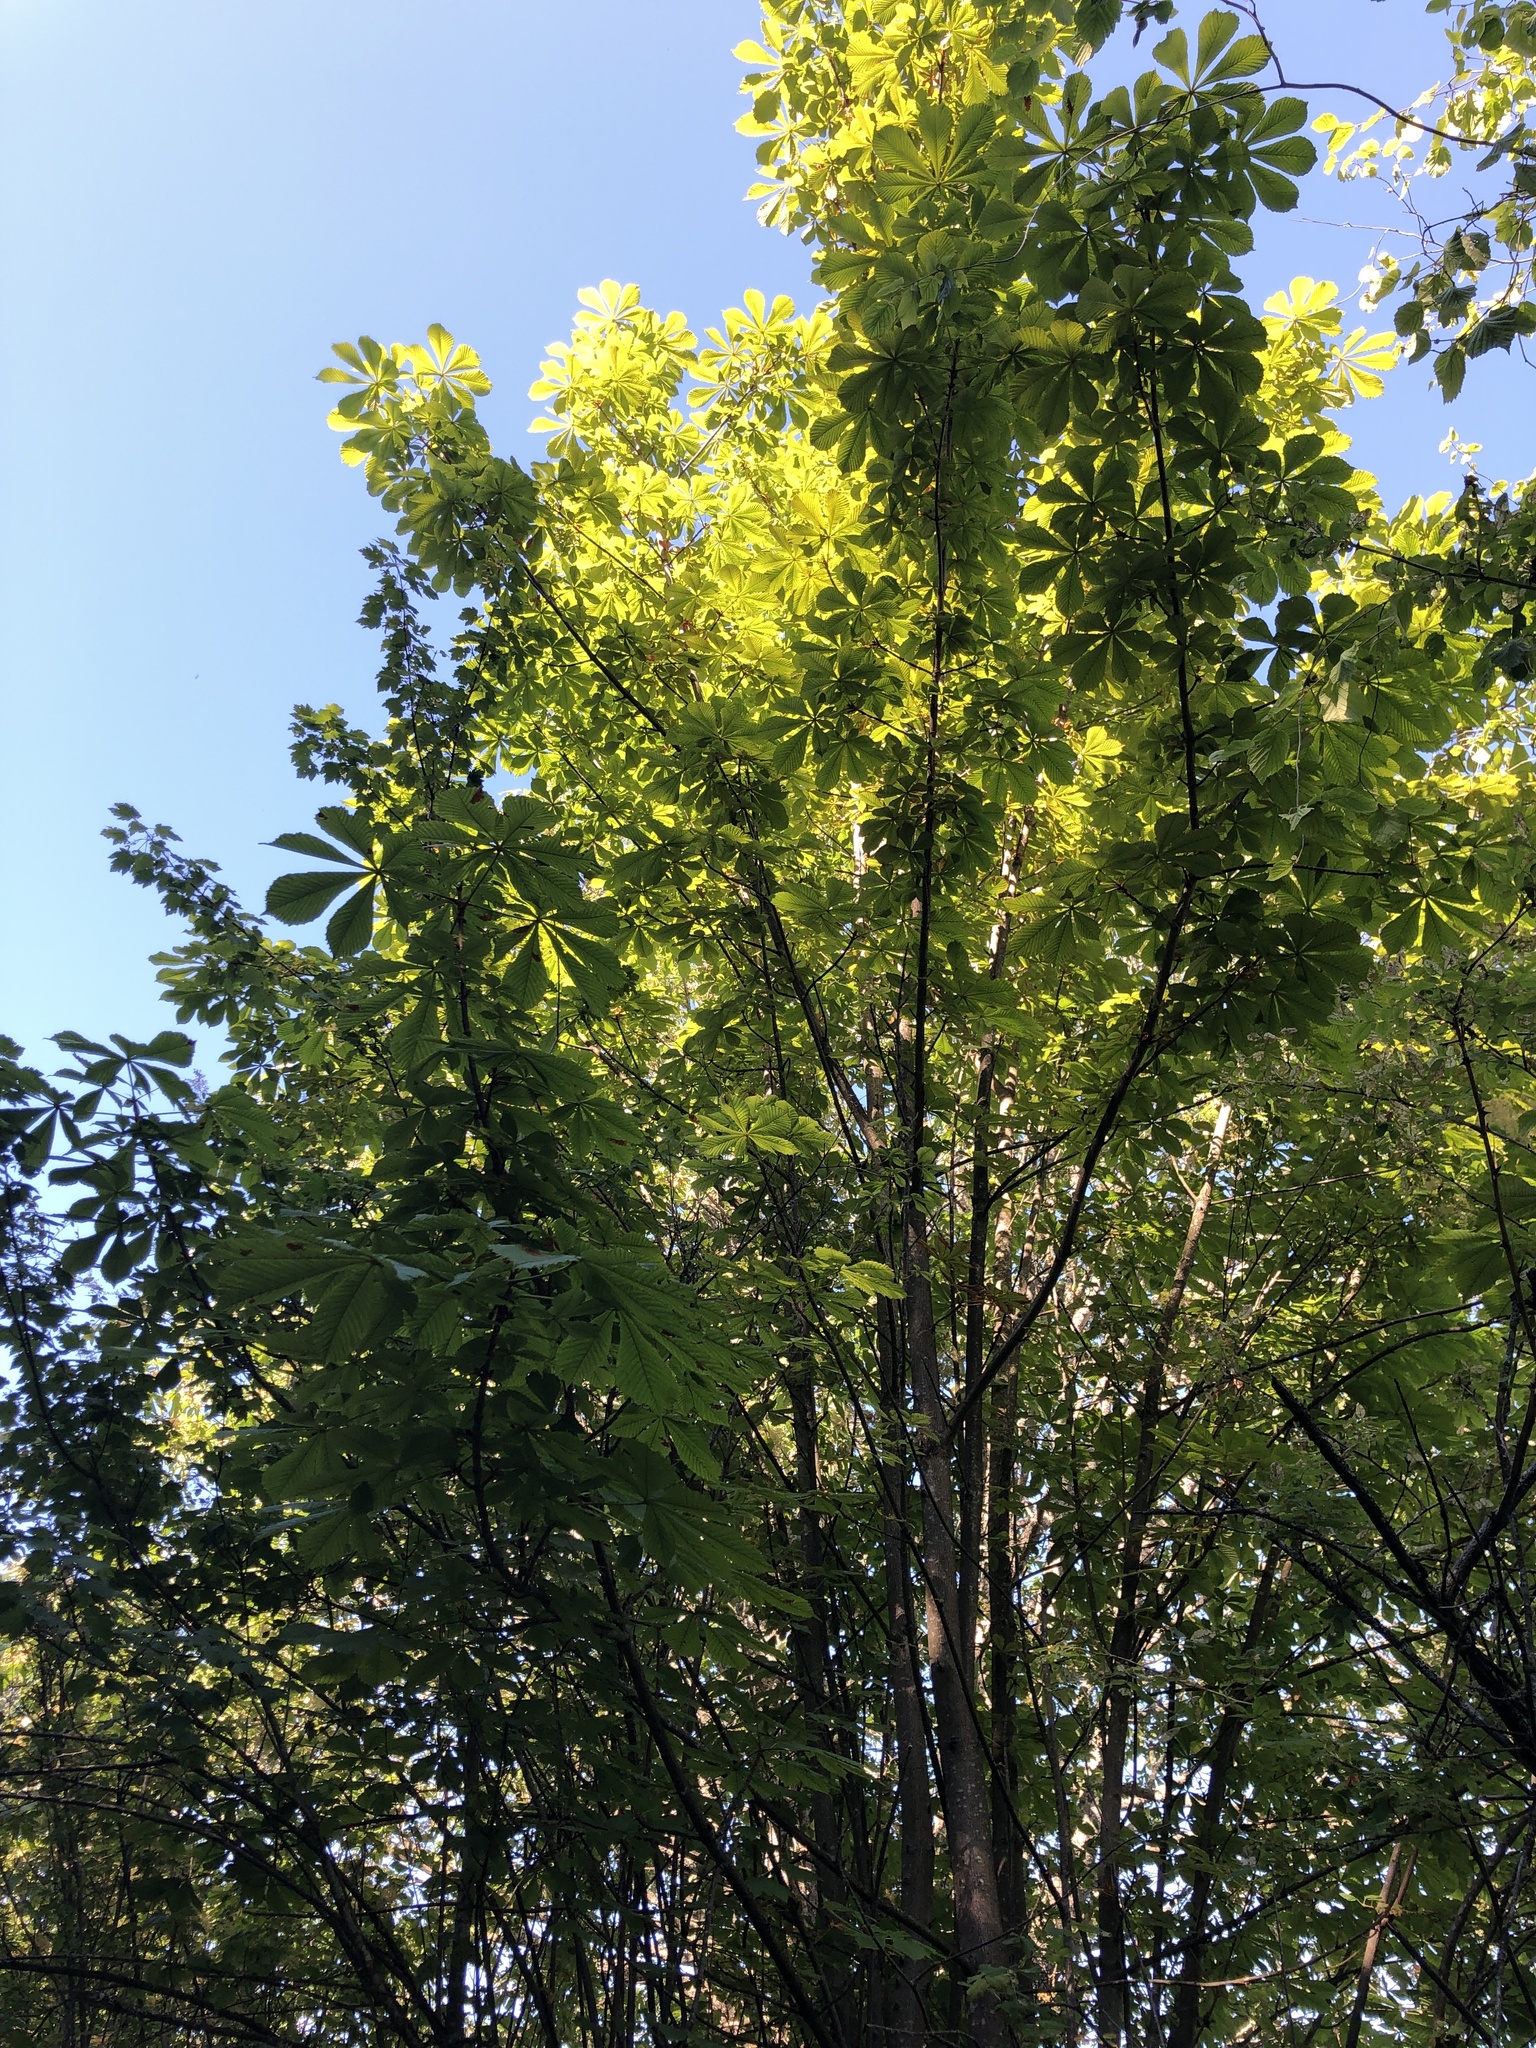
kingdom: Plantae
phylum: Tracheophyta
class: Magnoliopsida
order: Sapindales
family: Sapindaceae
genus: Aesculus
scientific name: Aesculus hippocastanum
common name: Horse-chestnut
